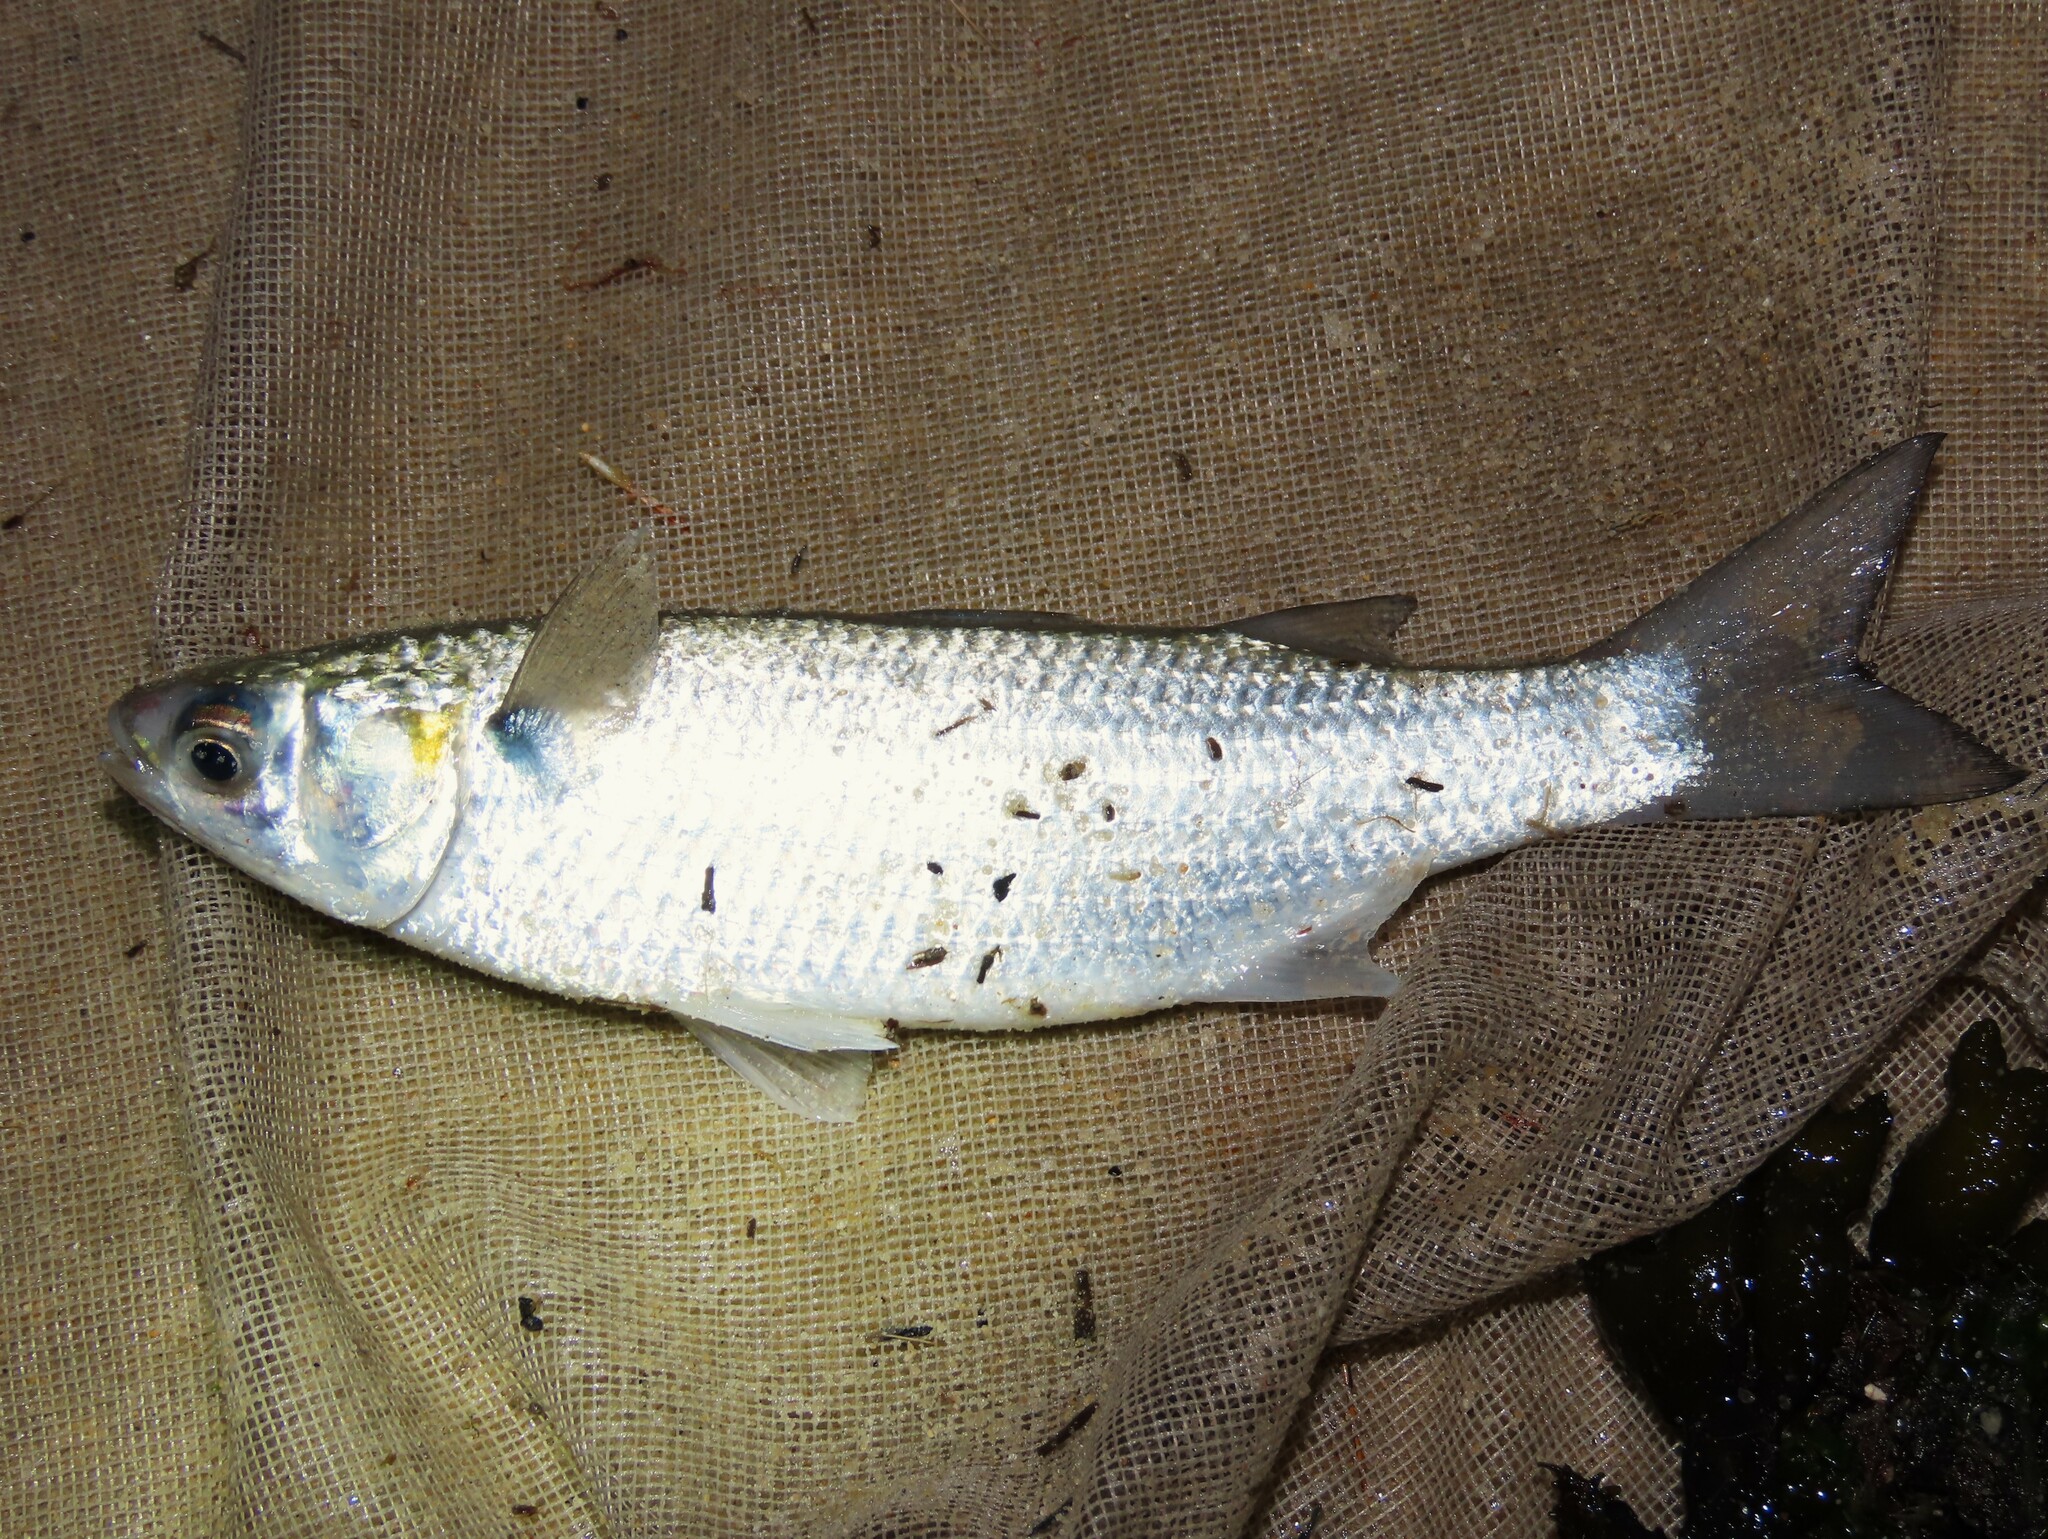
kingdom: Animalia
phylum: Chordata
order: Mugiliformes
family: Mugilidae
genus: Mugil
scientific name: Mugil curema
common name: White mullet
